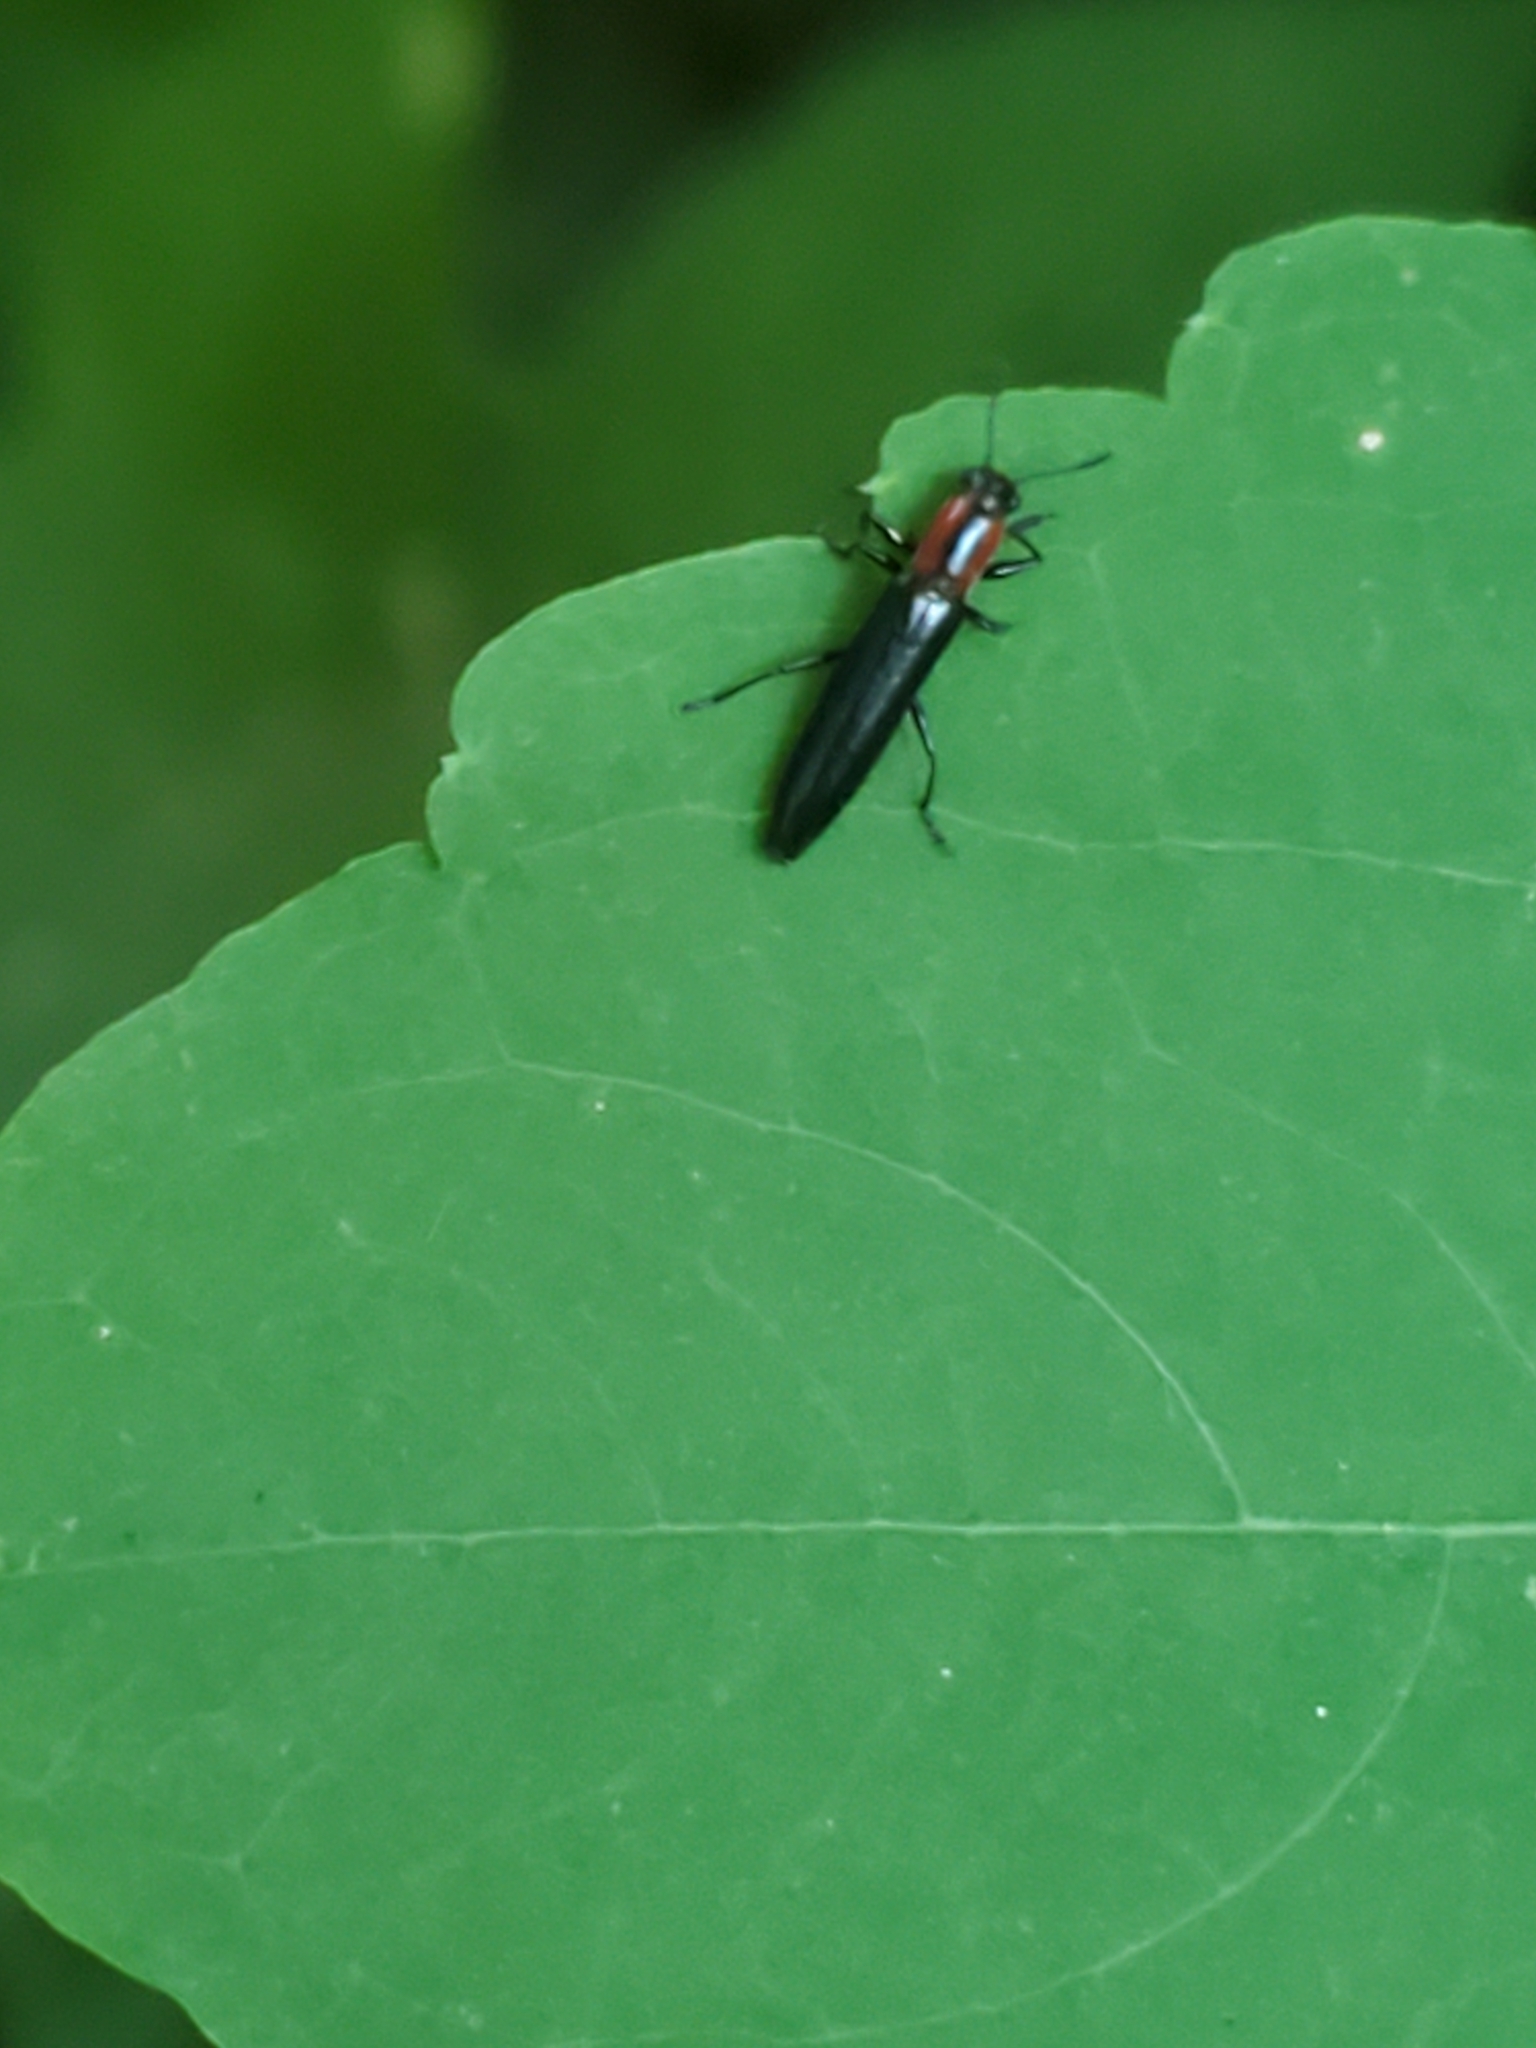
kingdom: Animalia
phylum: Arthropoda
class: Insecta
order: Coleoptera
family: Erotylidae
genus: Acropteroxys
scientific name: Acropteroxys gracilis
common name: Slender lizard beetle
